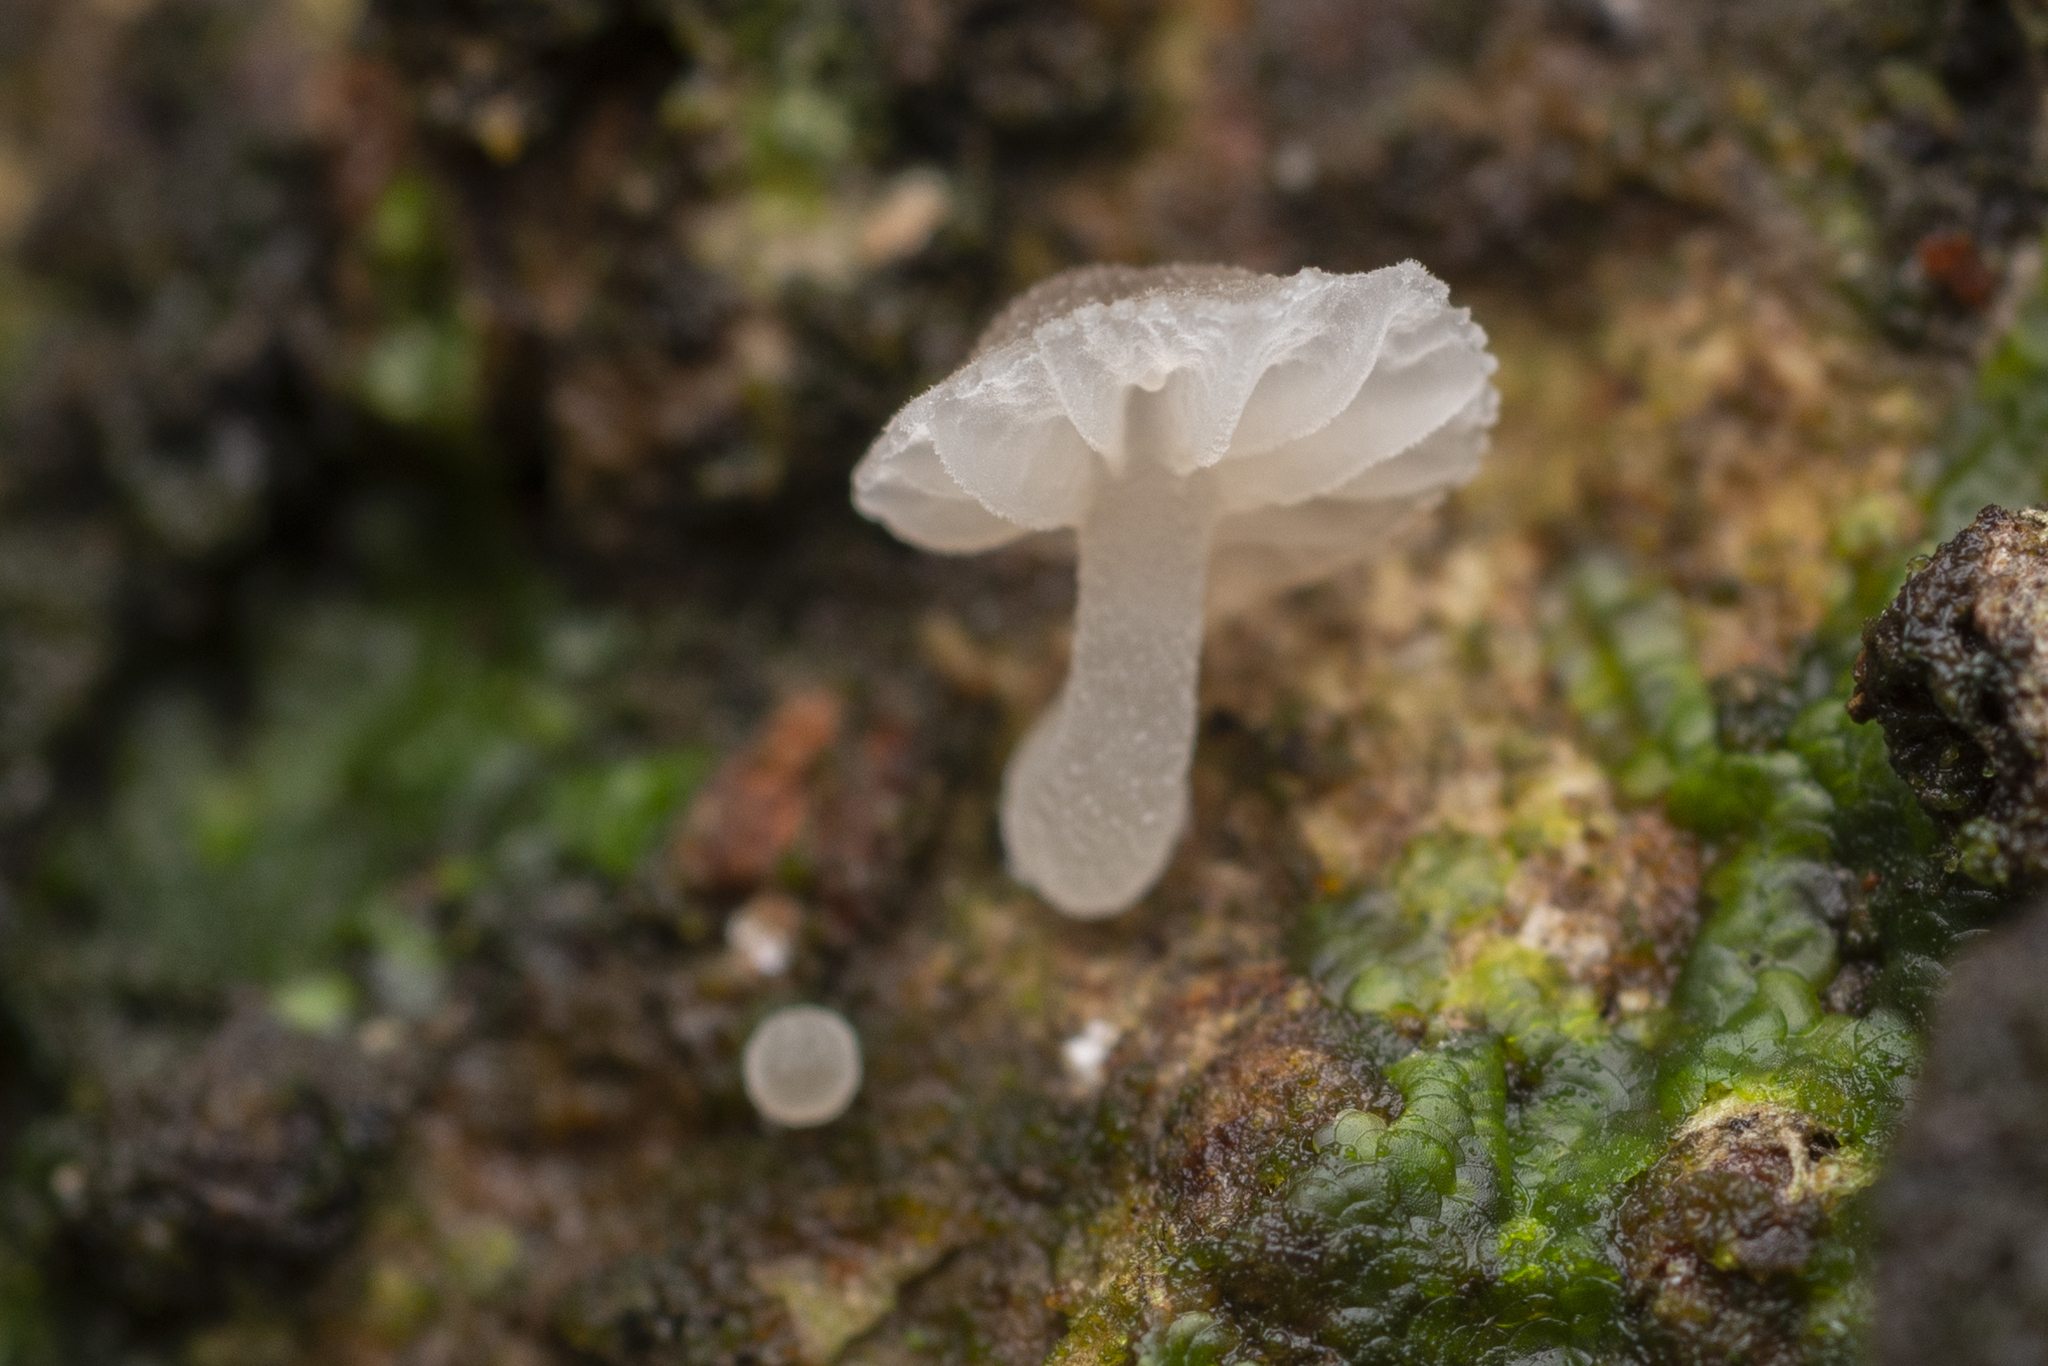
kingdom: Fungi
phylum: Basidiomycota
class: Agaricomycetes
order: Agaricales
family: Mycenaceae
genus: Roridomyces
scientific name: Roridomyces austrororidus
